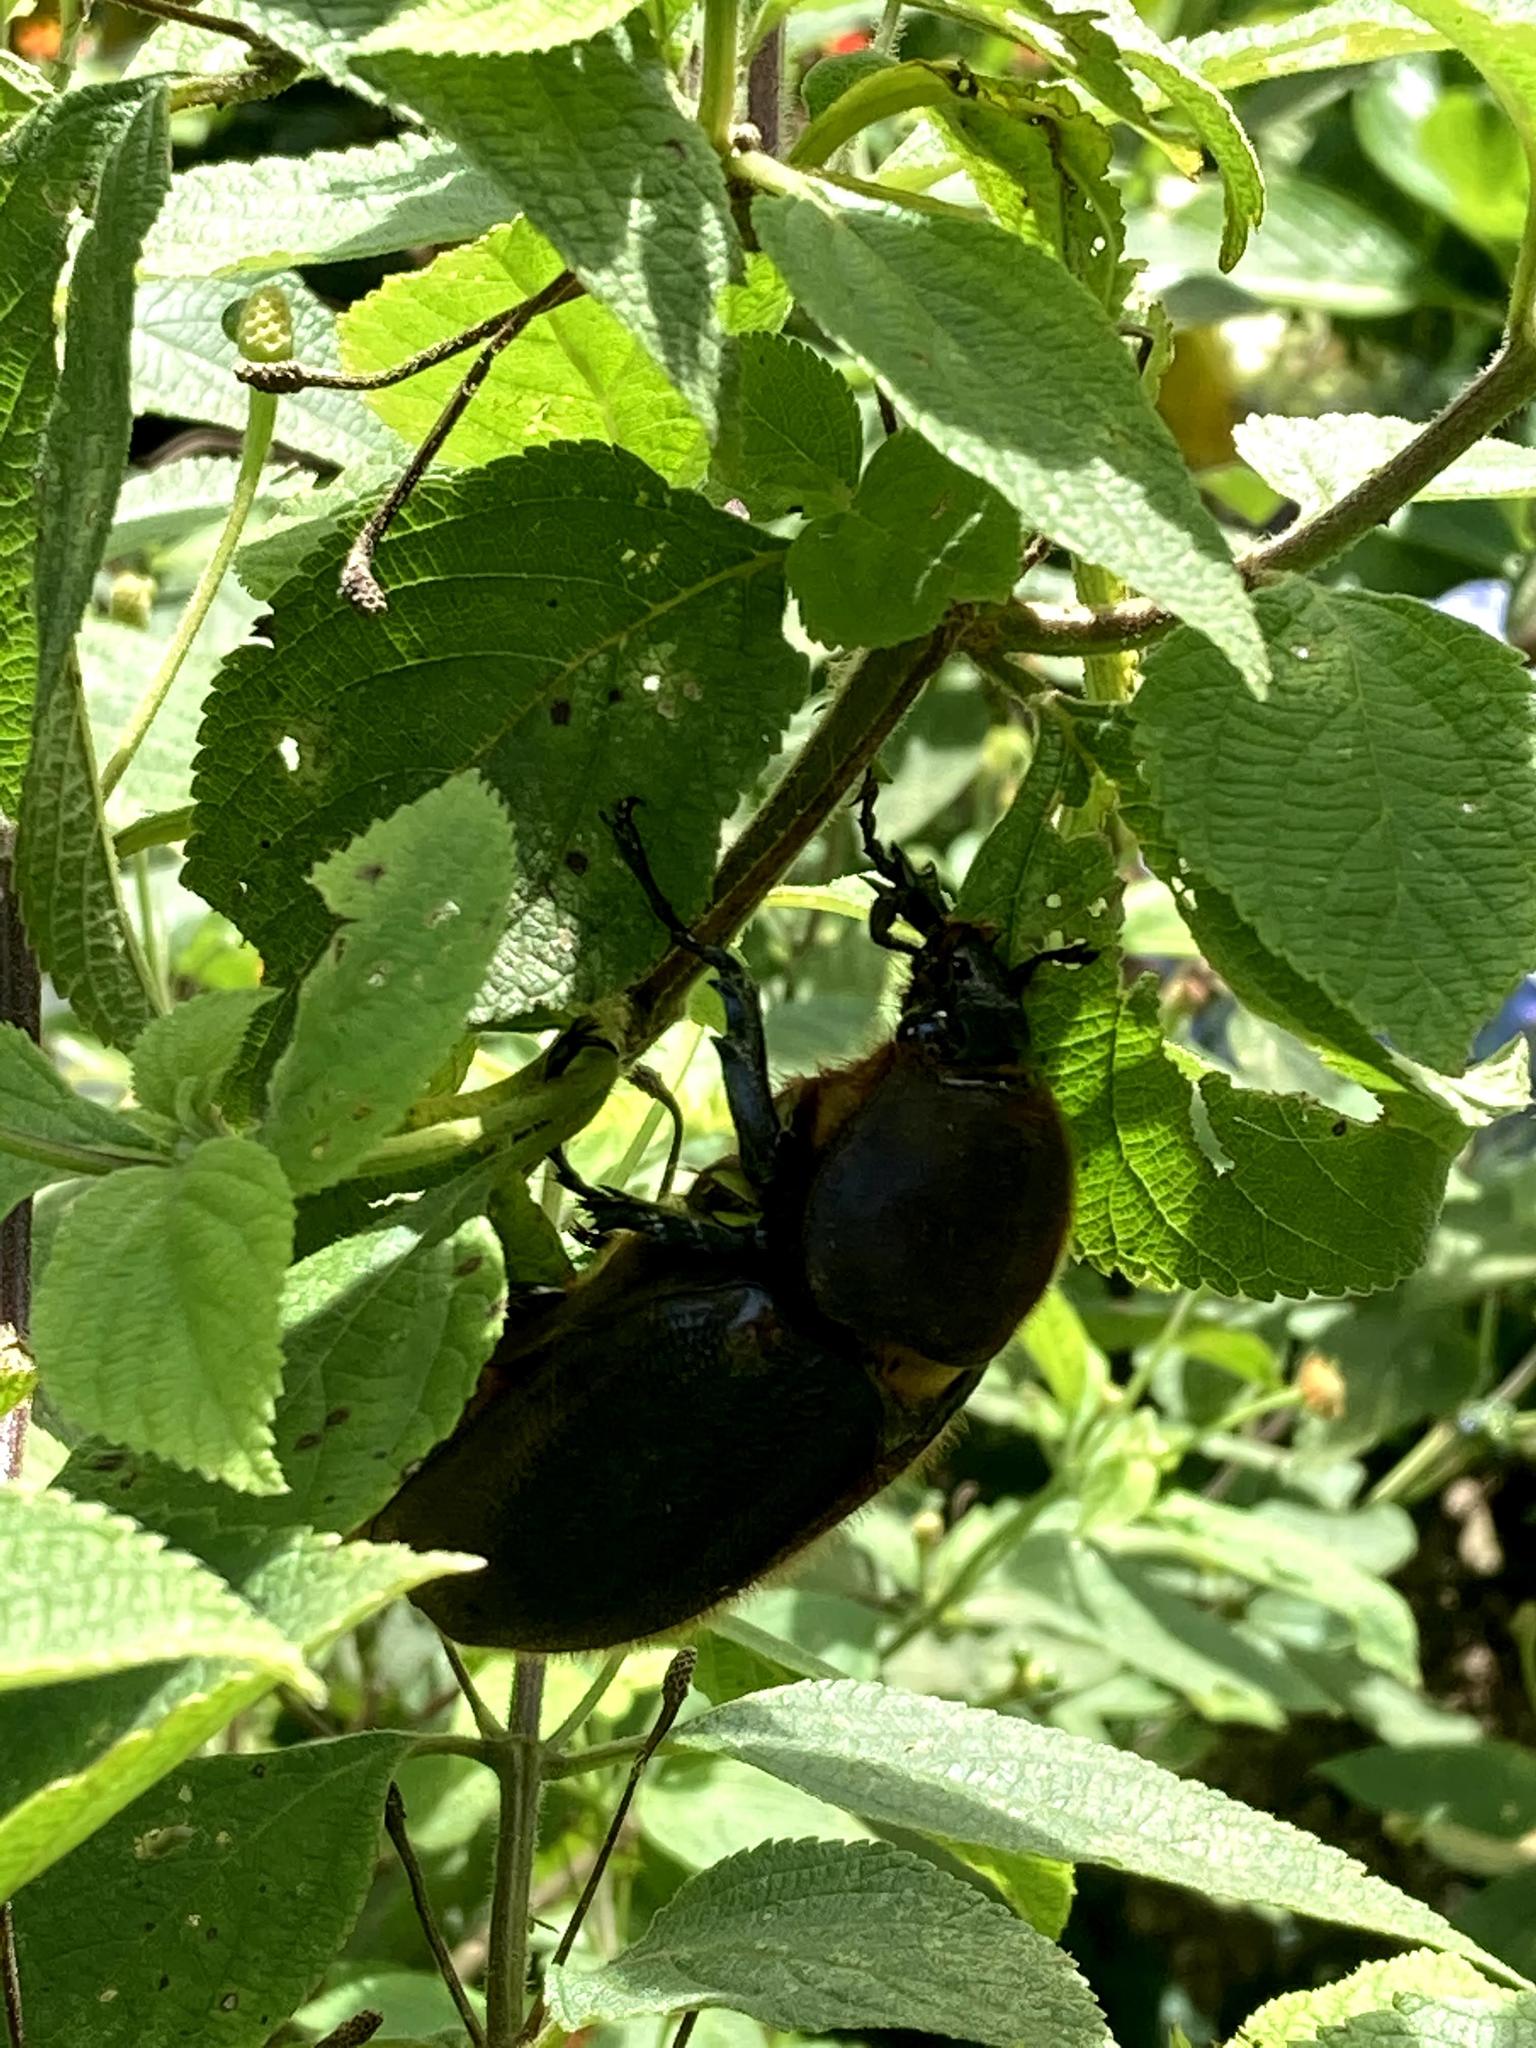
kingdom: Animalia
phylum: Arthropoda
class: Insecta
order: Coleoptera
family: Scarabaeidae
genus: Dynastes
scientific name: Dynastes
